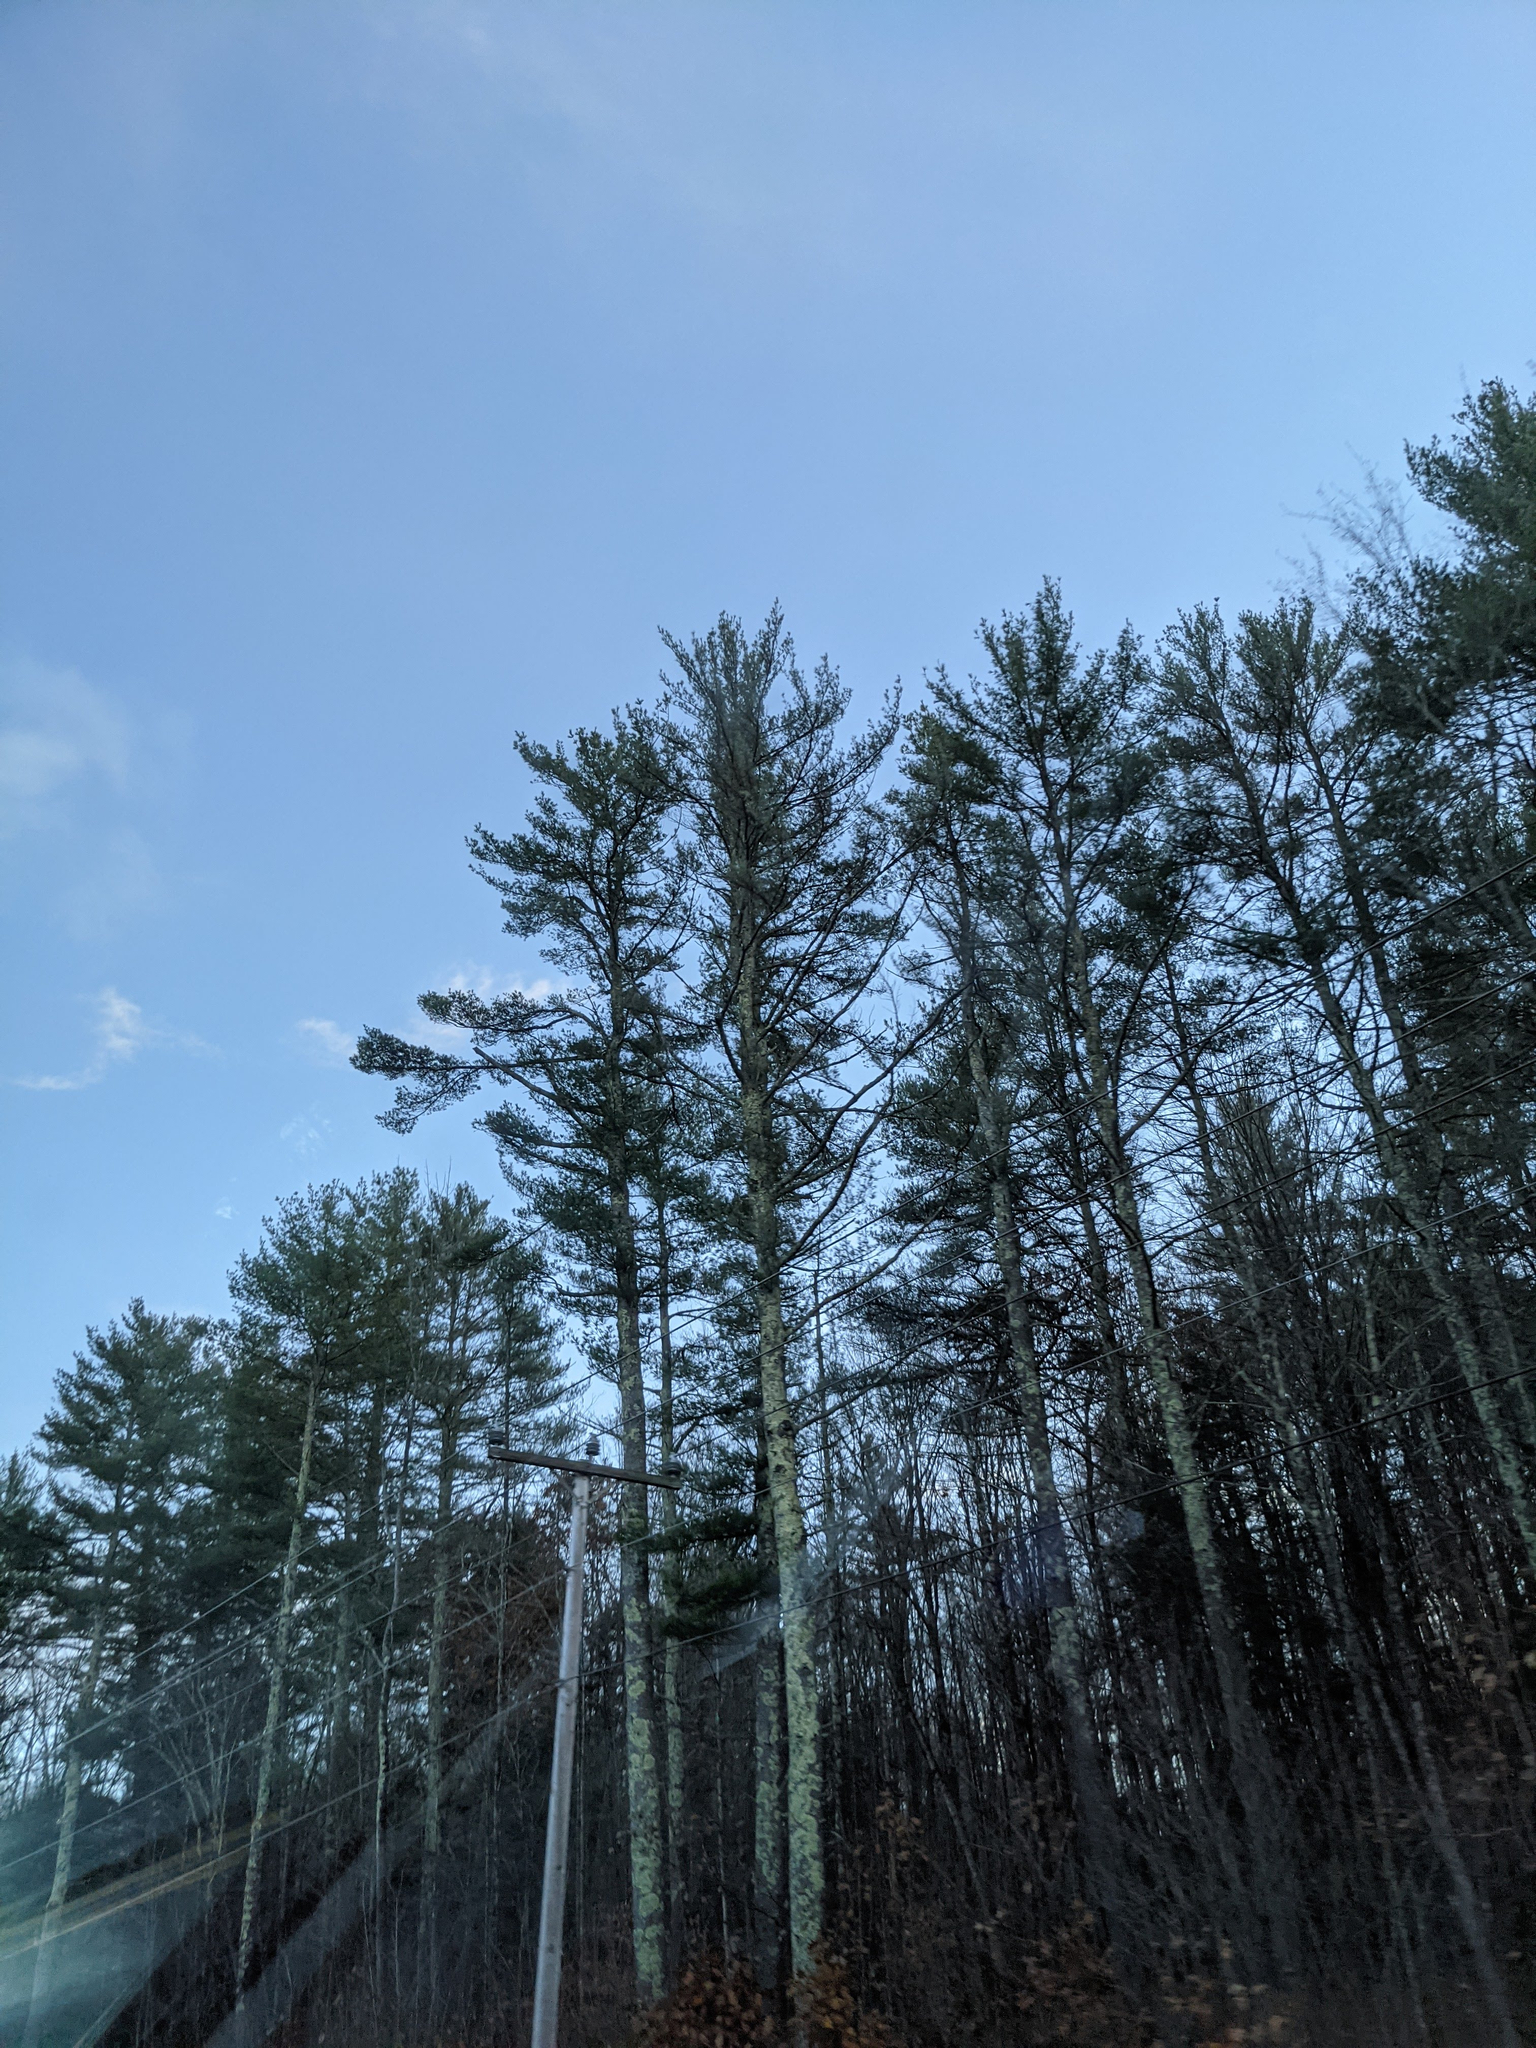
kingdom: Plantae
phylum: Tracheophyta
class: Pinopsida
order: Pinales
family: Pinaceae
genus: Pinus
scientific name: Pinus strobus
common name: Weymouth pine
